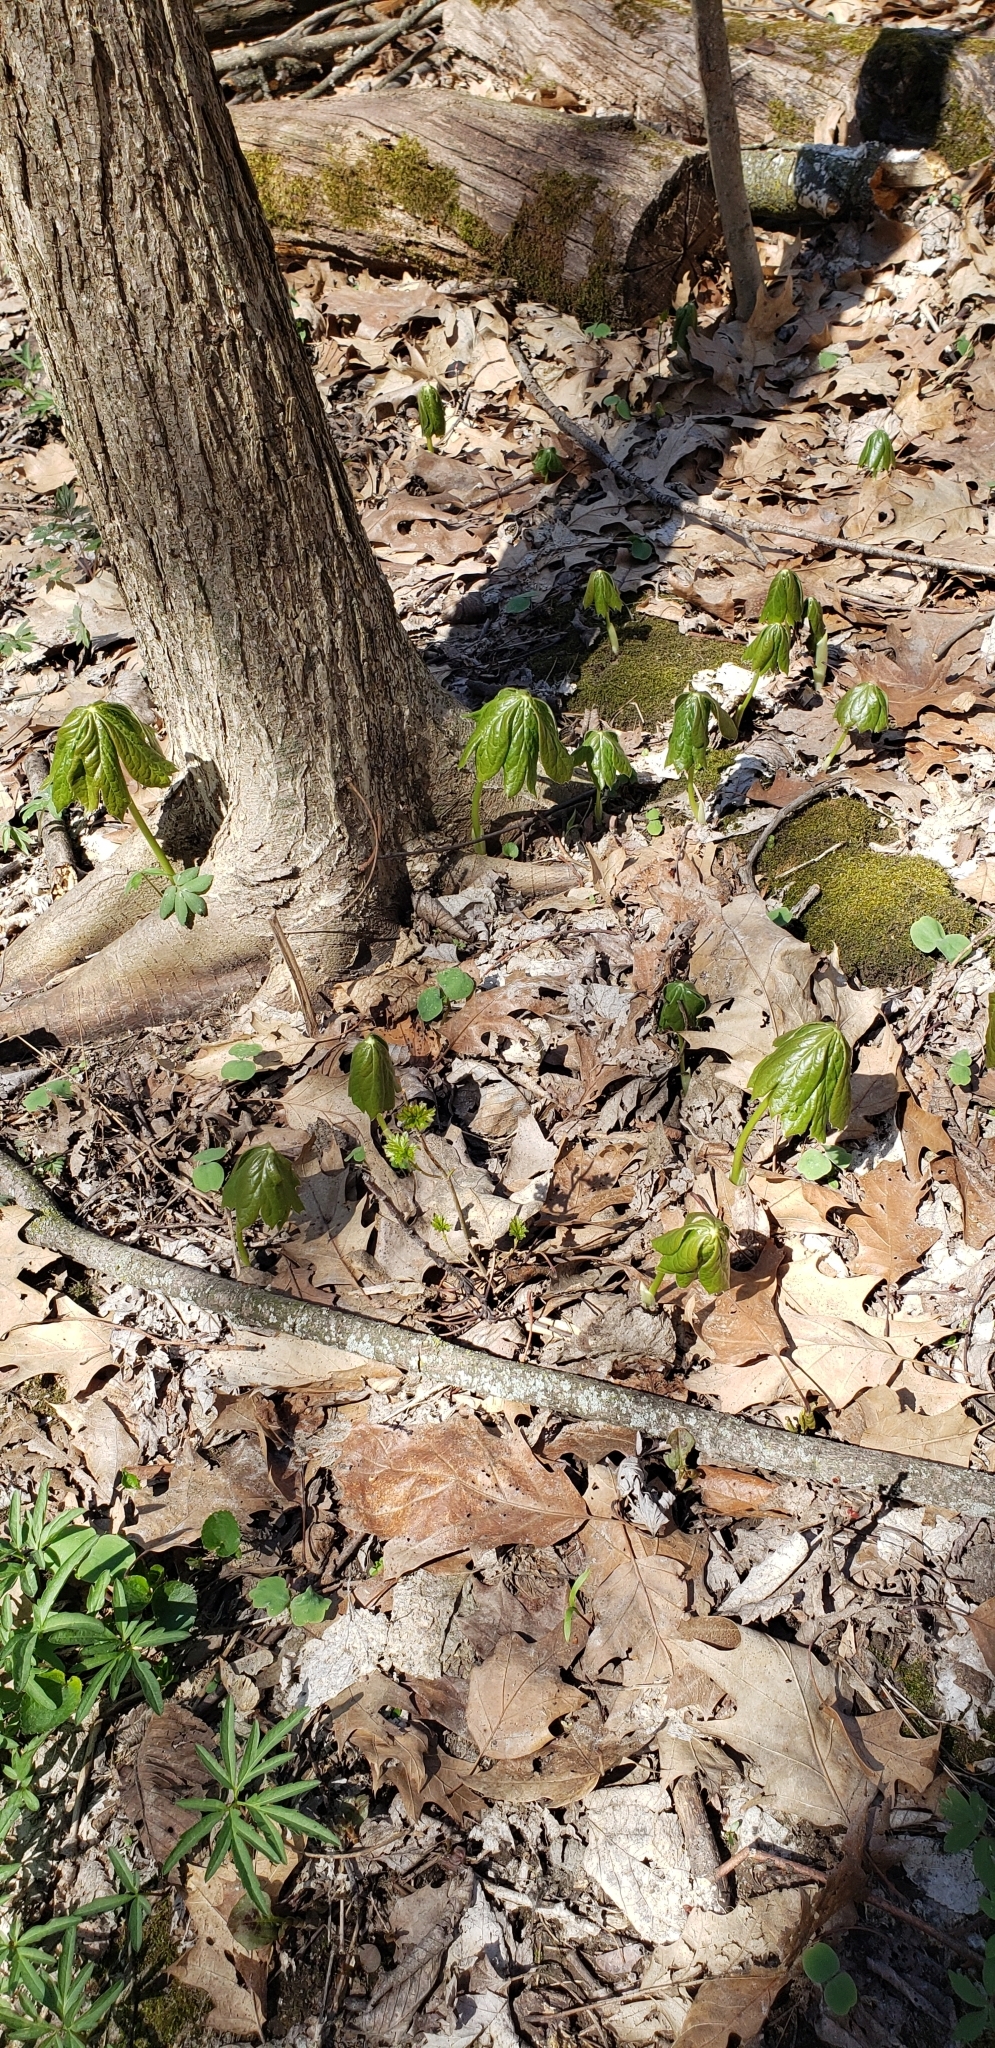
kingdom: Plantae
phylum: Tracheophyta
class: Magnoliopsida
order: Ranunculales
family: Berberidaceae
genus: Podophyllum
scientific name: Podophyllum peltatum
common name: Wild mandrake
